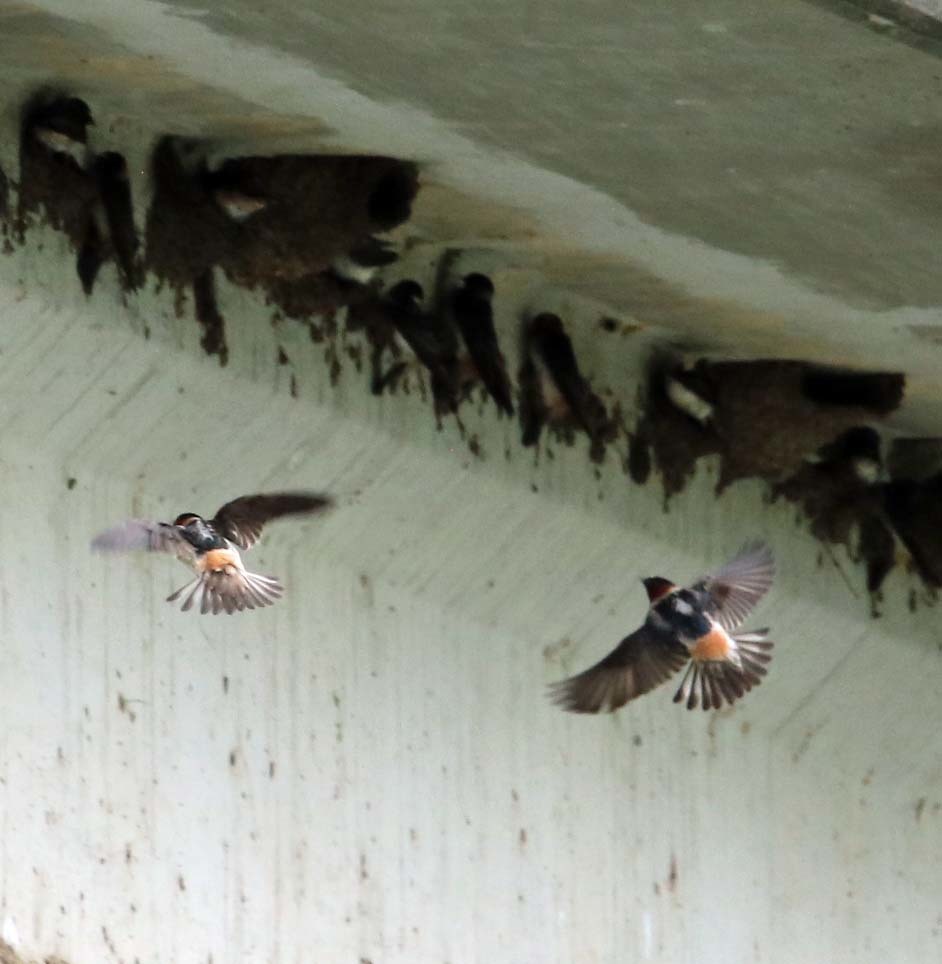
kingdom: Animalia
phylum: Chordata
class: Aves
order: Passeriformes
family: Hirundinidae
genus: Petrochelidon
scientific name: Petrochelidon pyrrhonota
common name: American cliff swallow
